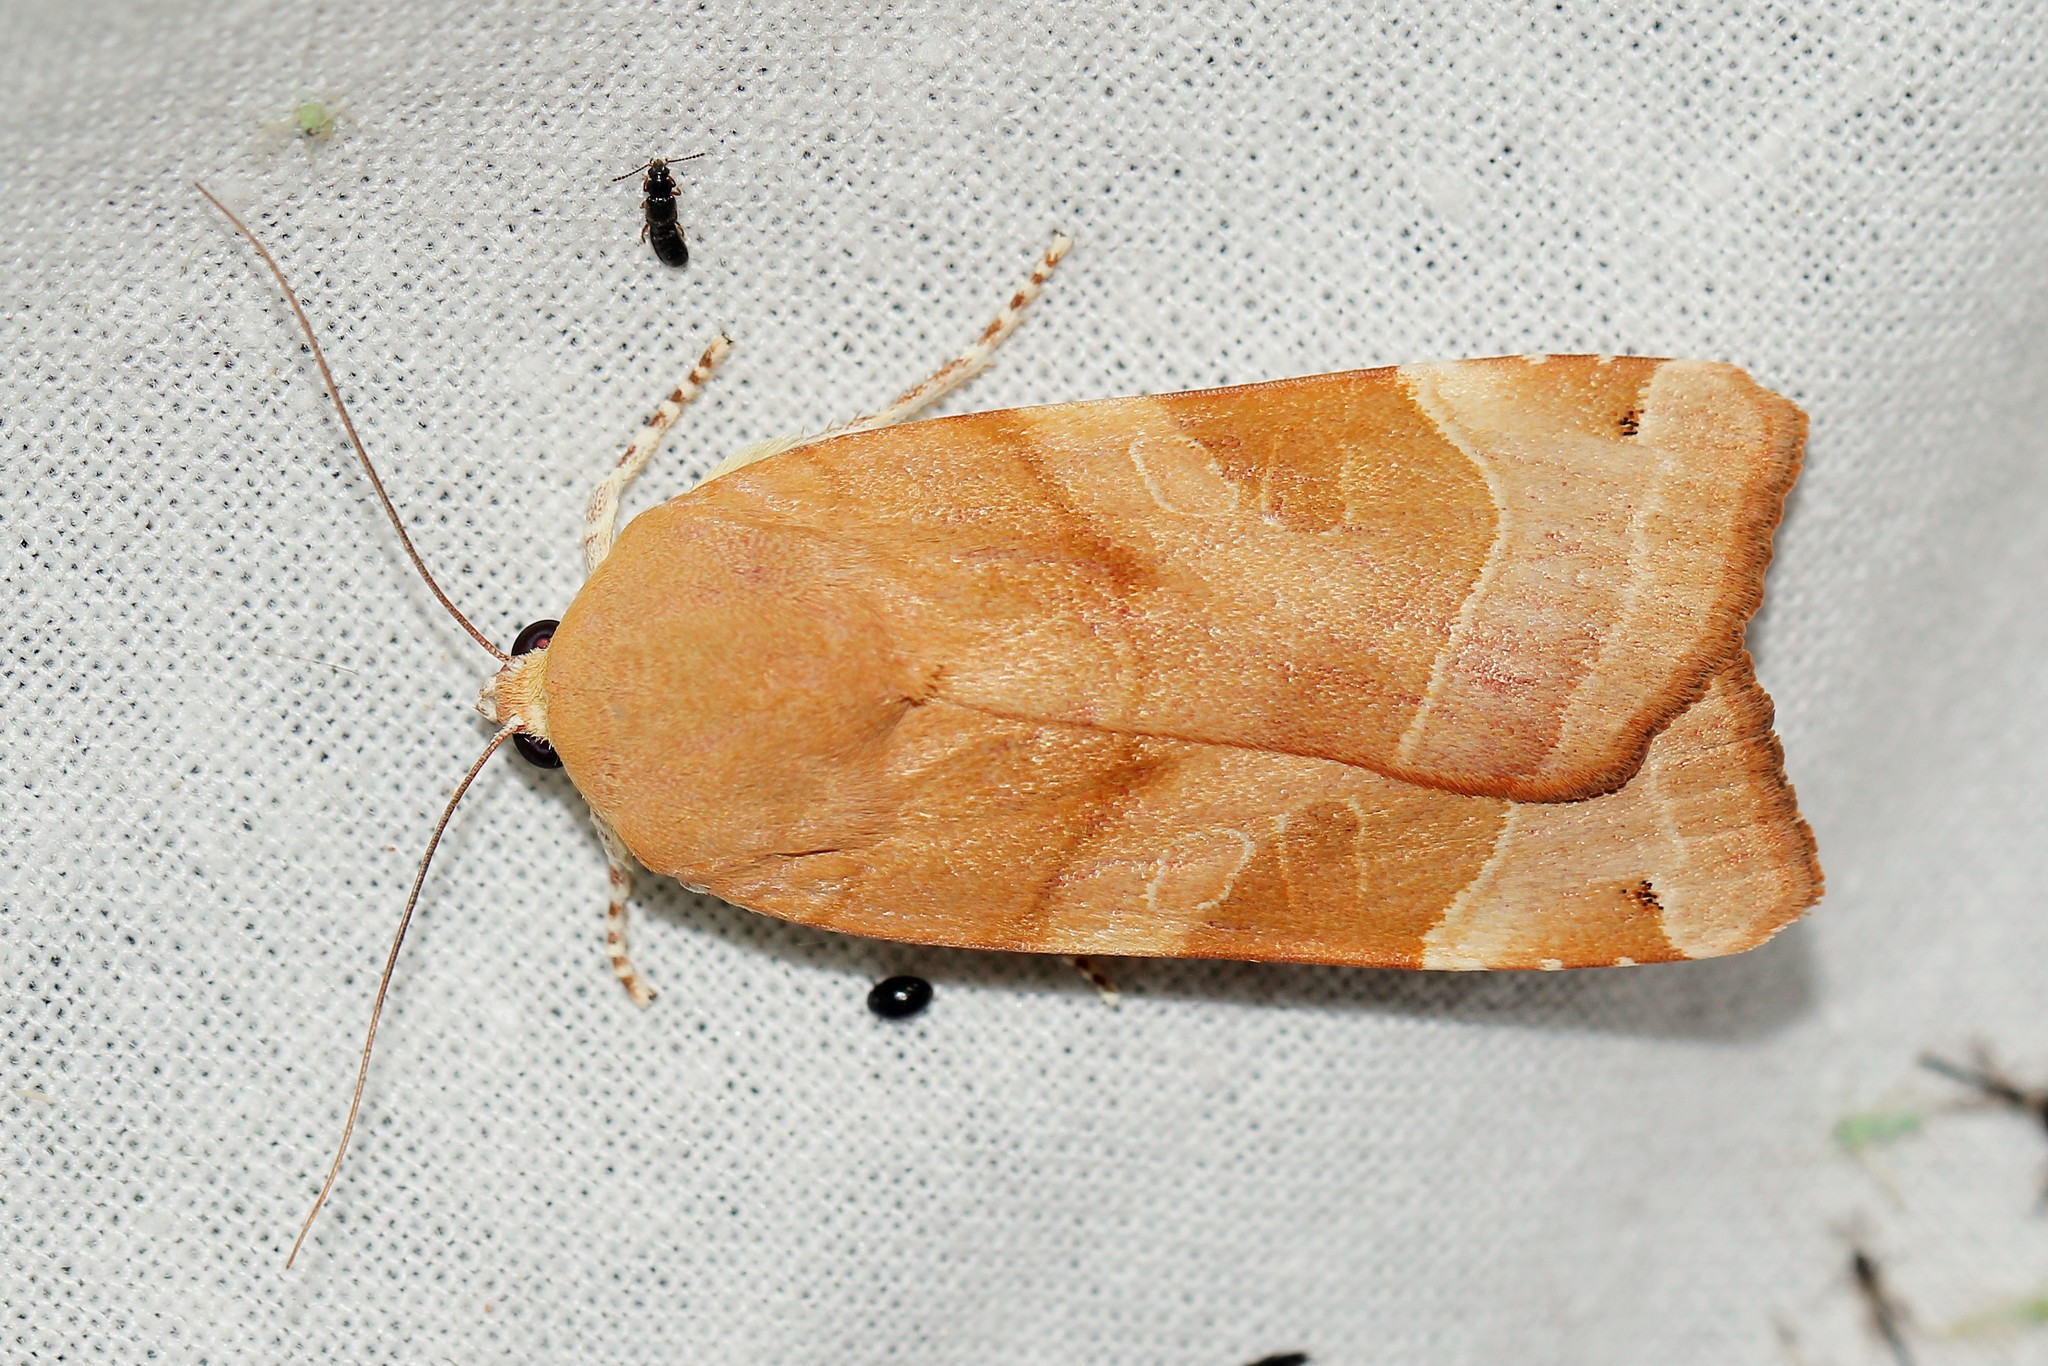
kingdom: Animalia
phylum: Arthropoda
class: Insecta
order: Lepidoptera
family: Noctuidae
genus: Noctua
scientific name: Noctua fimbriata
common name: Broad-bordered yellow underwing
